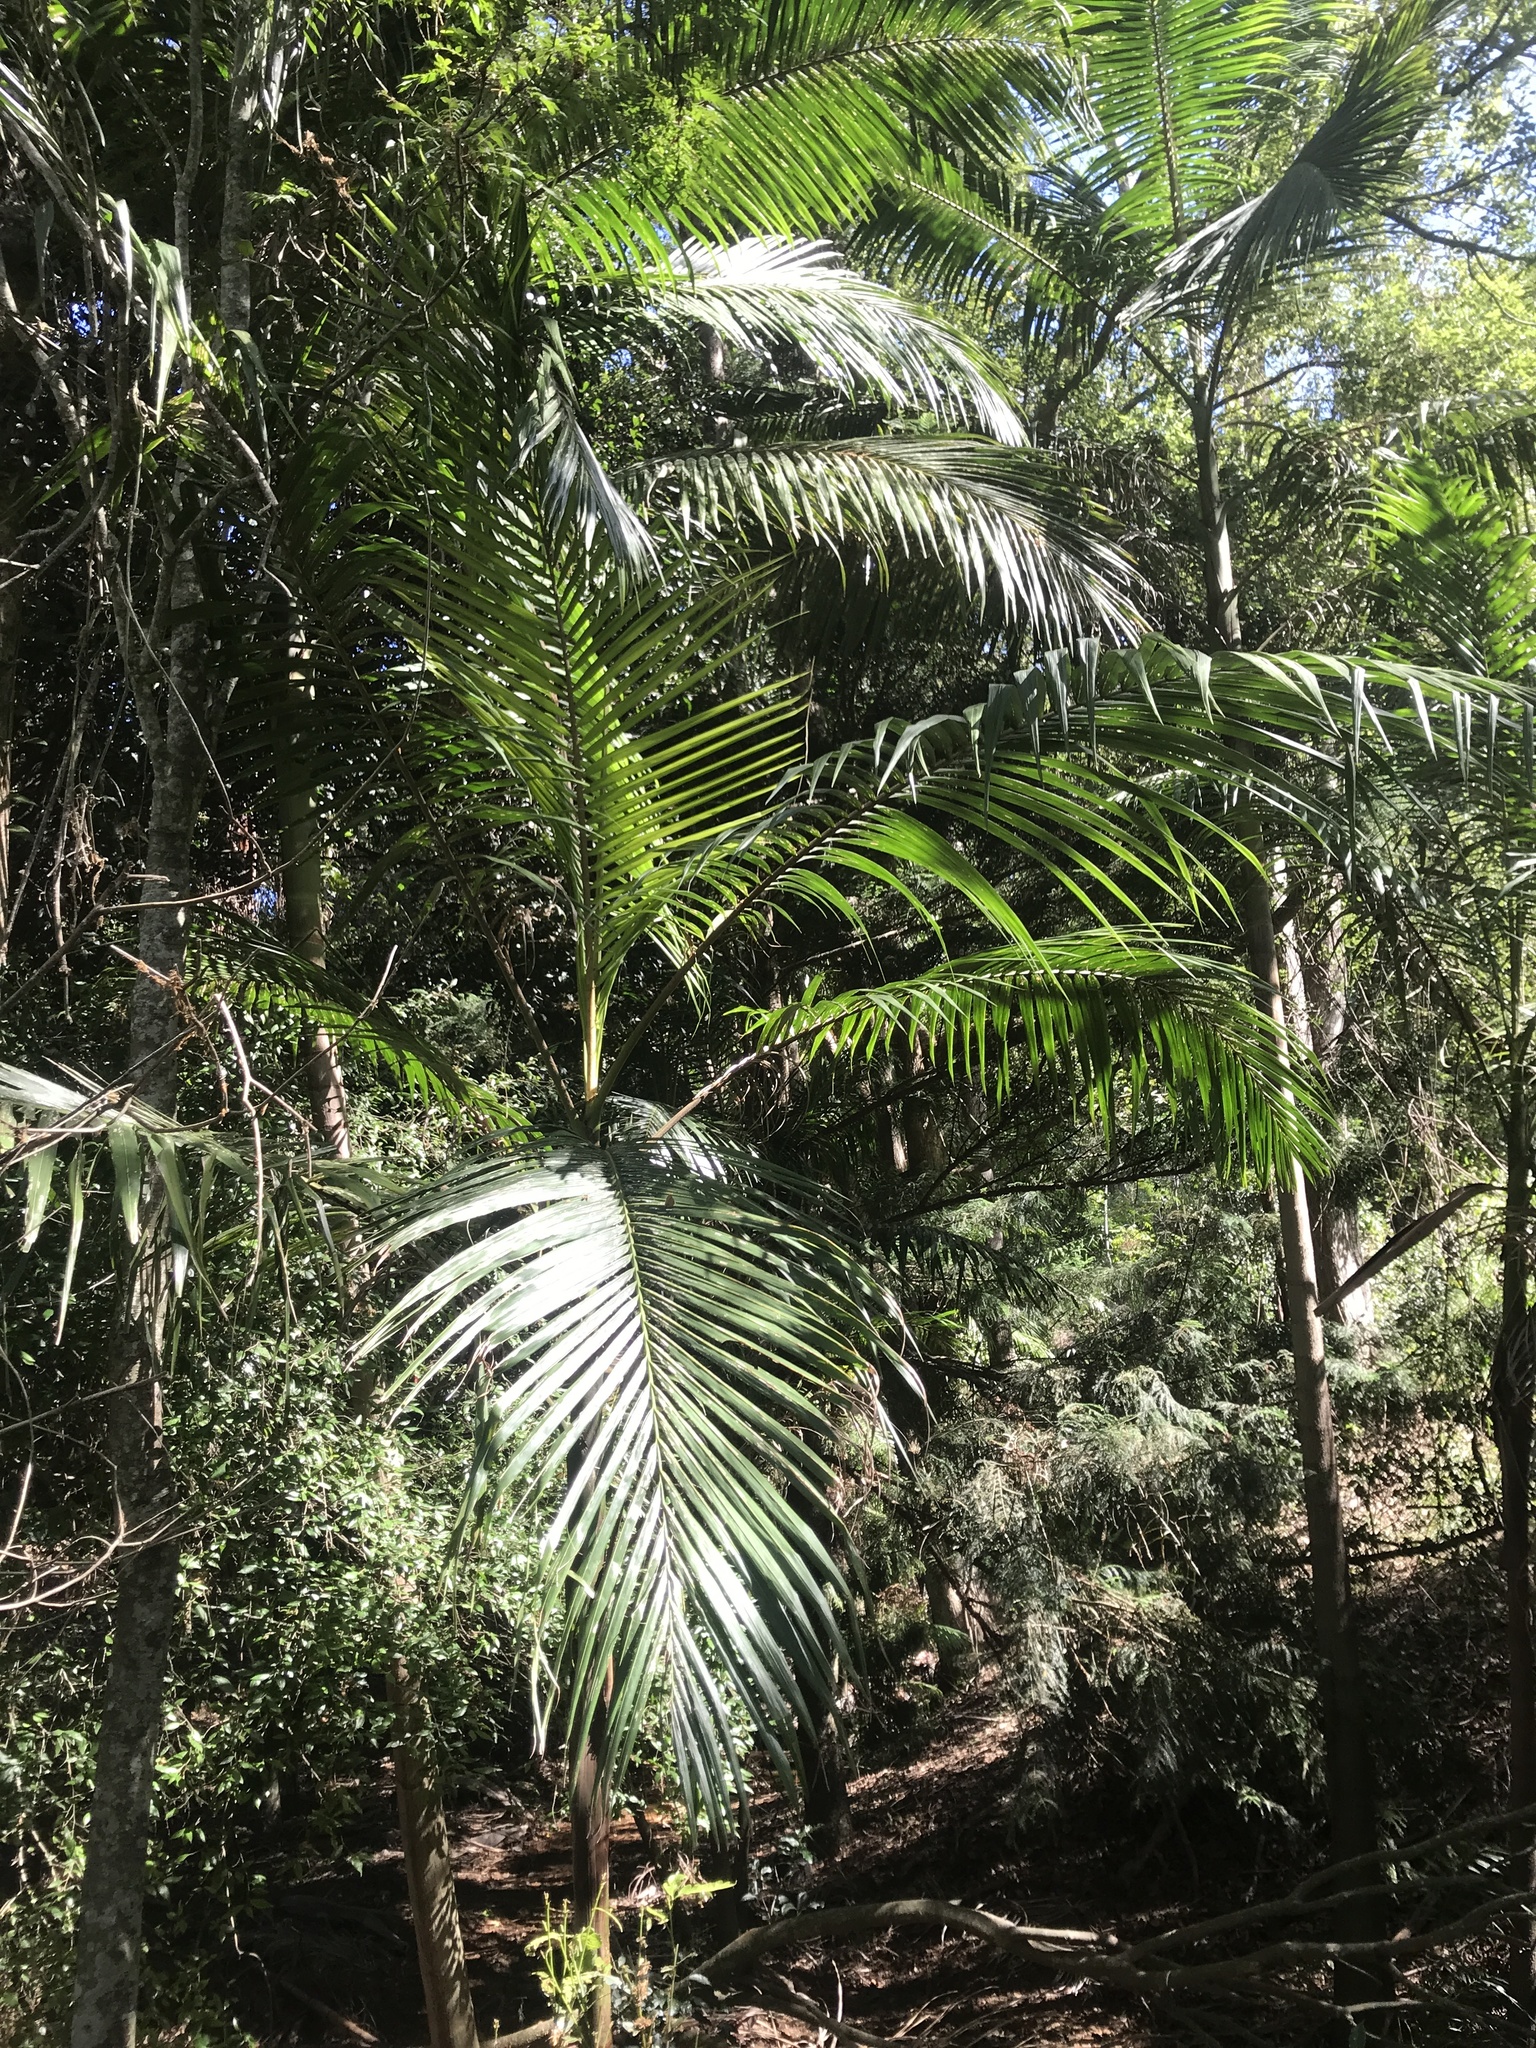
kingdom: Plantae
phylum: Tracheophyta
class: Liliopsida
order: Arecales
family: Arecaceae
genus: Archontophoenix
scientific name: Archontophoenix cunninghamiana
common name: Piccabeen bangalow palm
